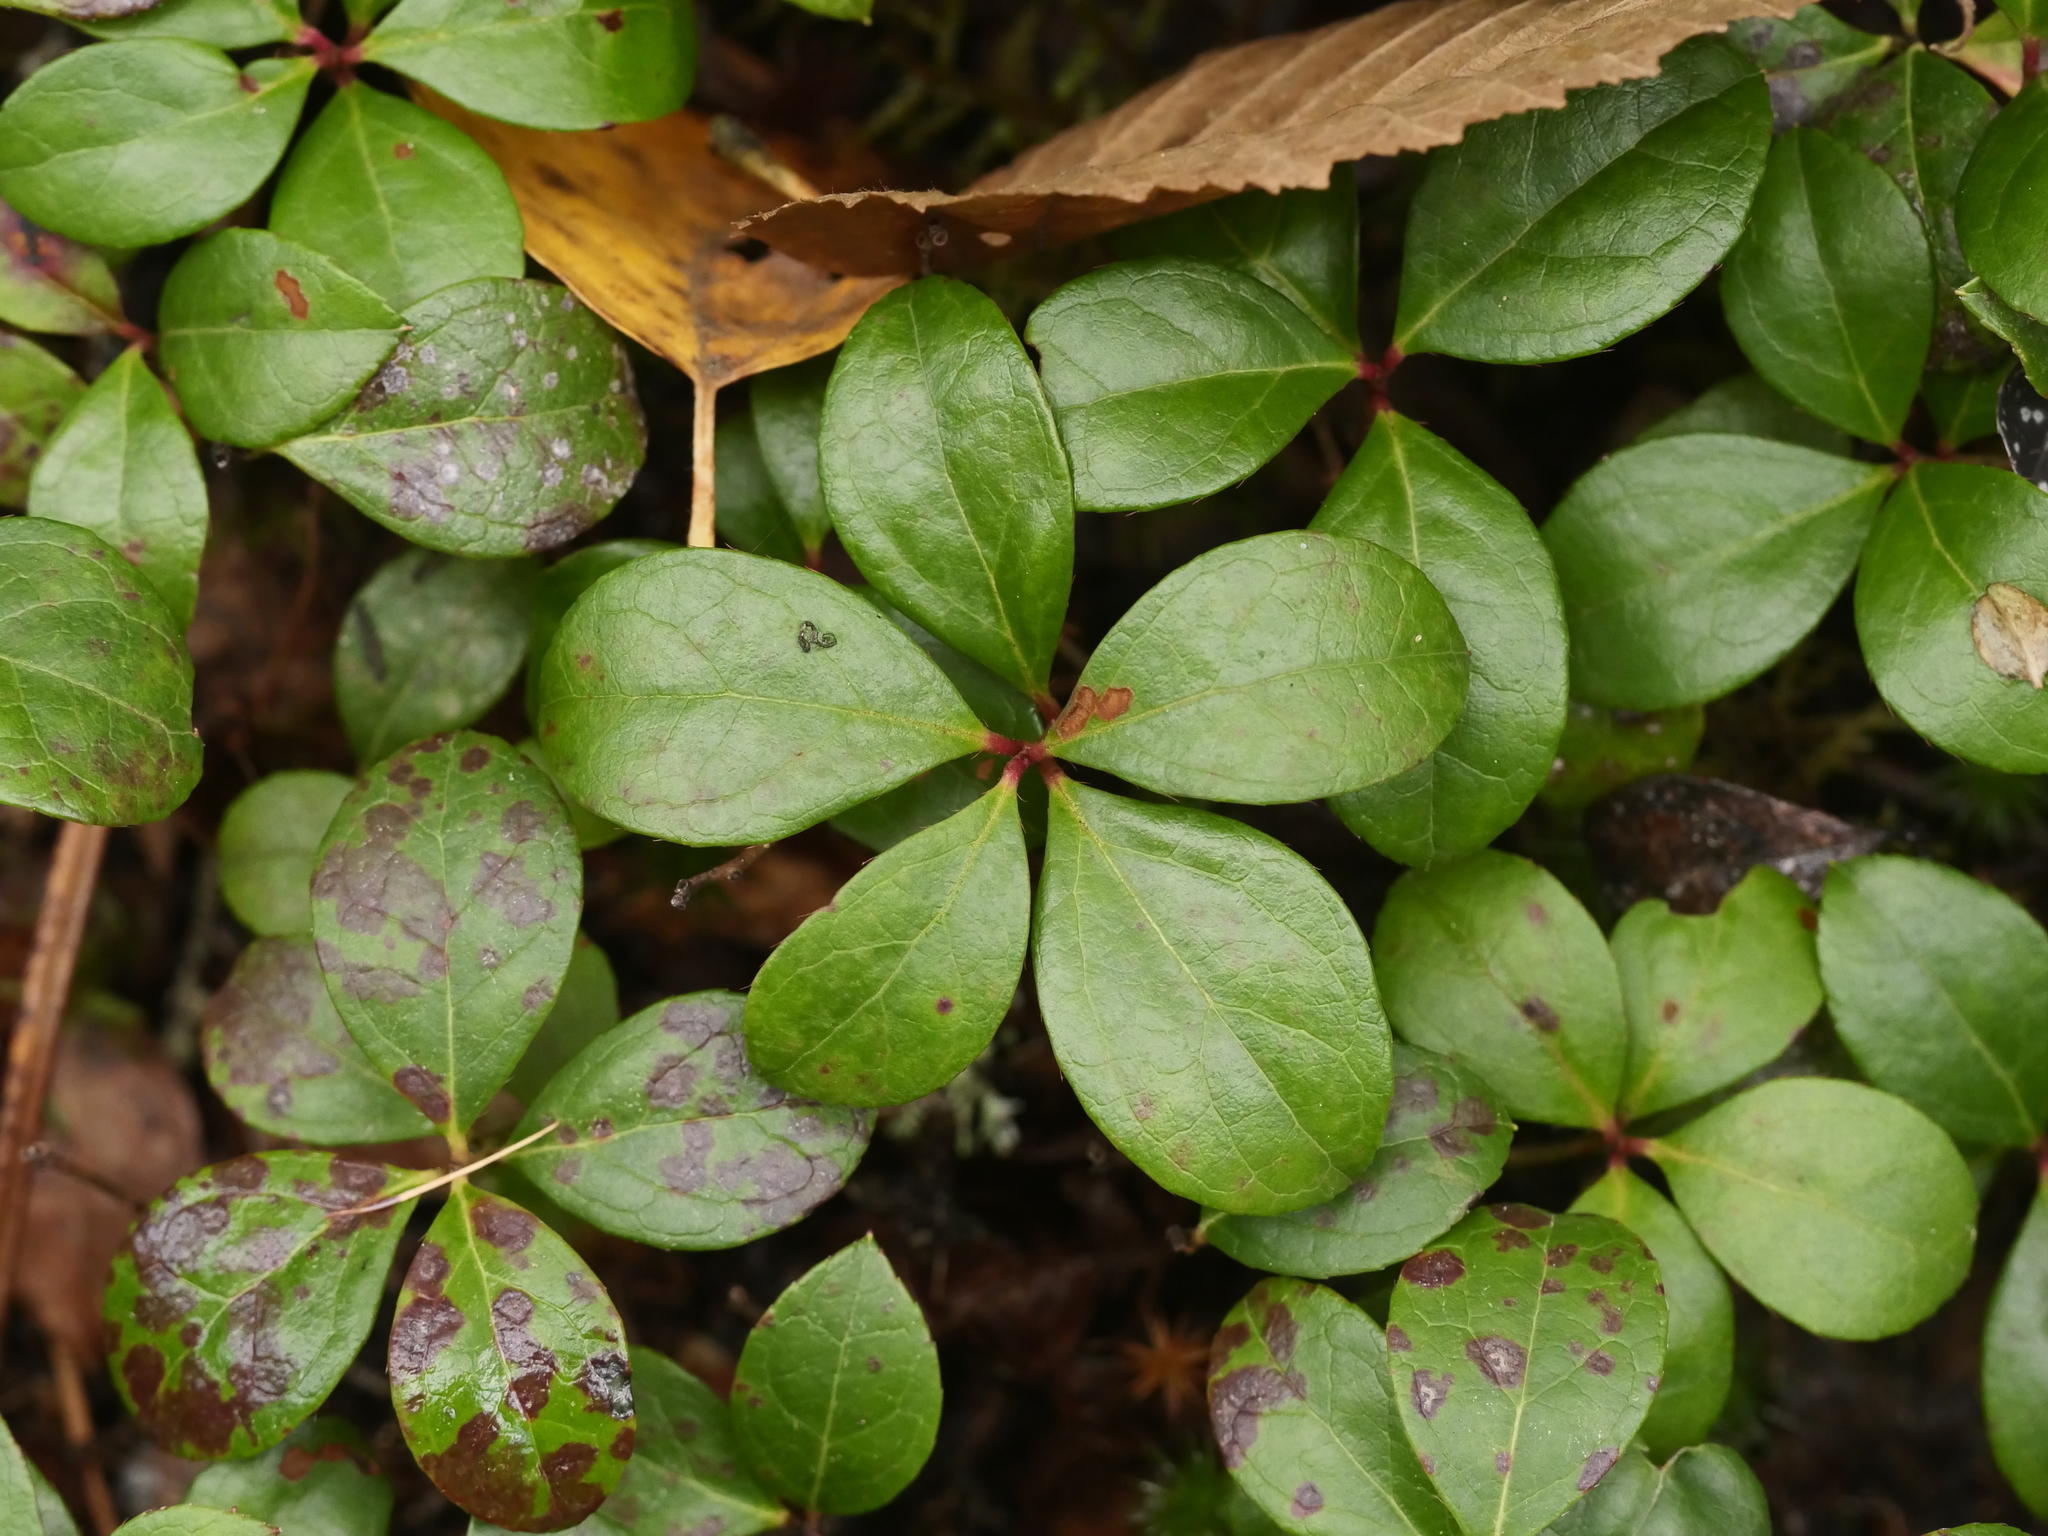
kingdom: Plantae
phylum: Tracheophyta
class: Magnoliopsida
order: Ericales
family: Ericaceae
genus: Gaultheria
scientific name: Gaultheria procumbens
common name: Checkerberry
